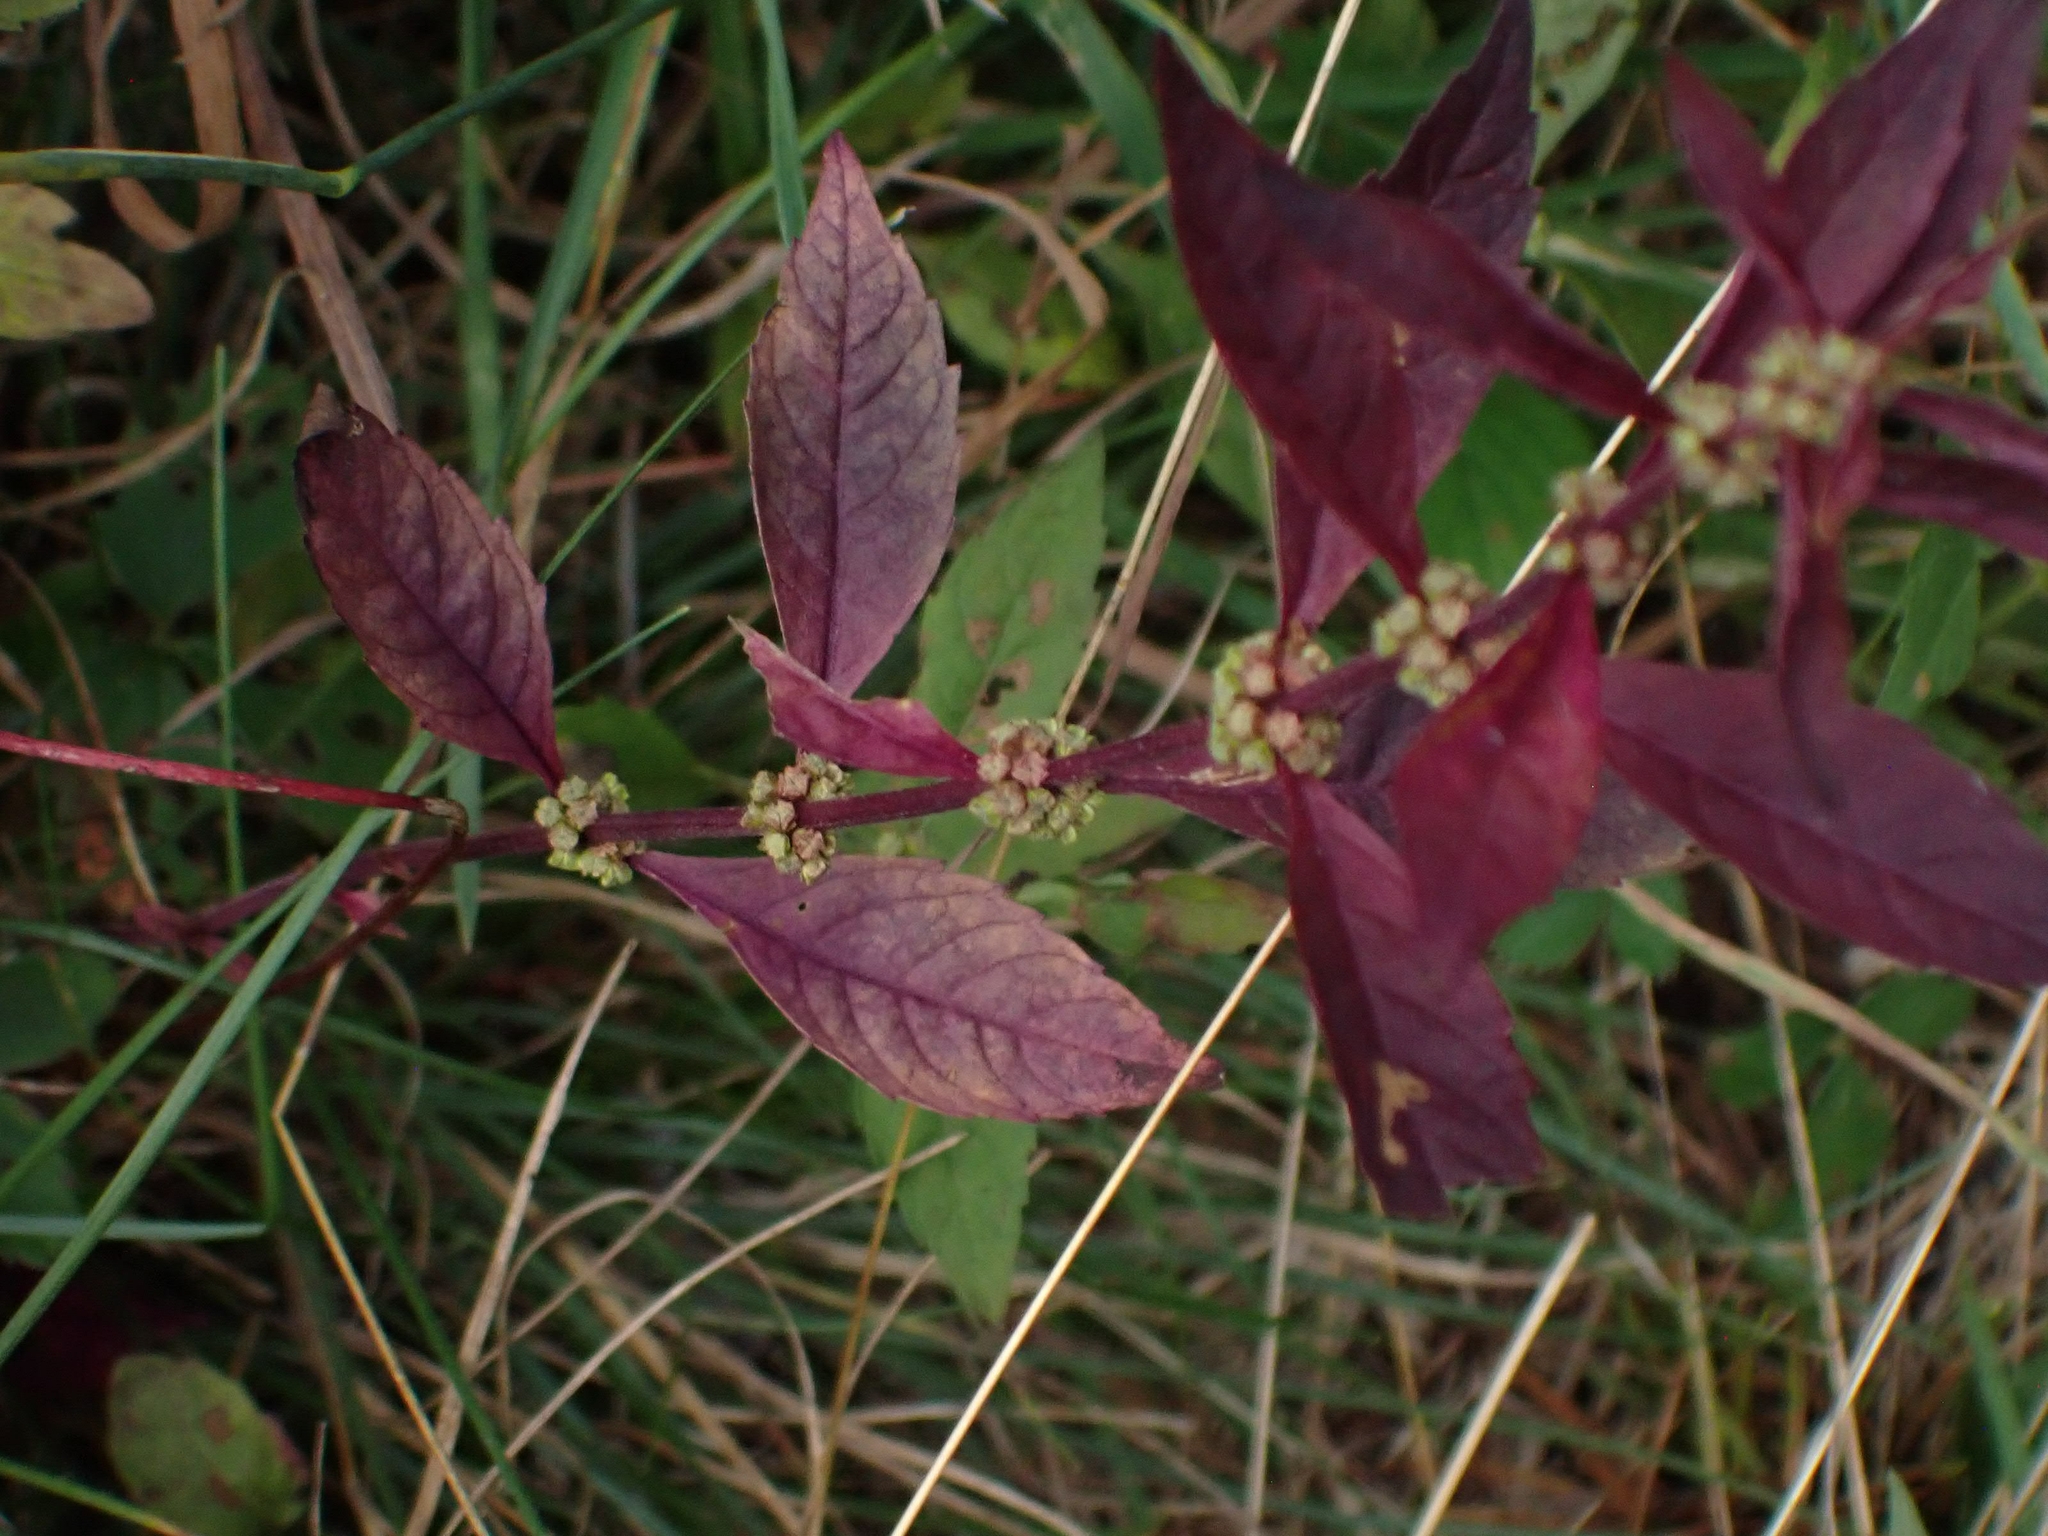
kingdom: Plantae
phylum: Tracheophyta
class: Magnoliopsida
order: Lamiales
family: Lamiaceae
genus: Lycopus
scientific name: Lycopus uniflorus
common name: Northern bugleweed
